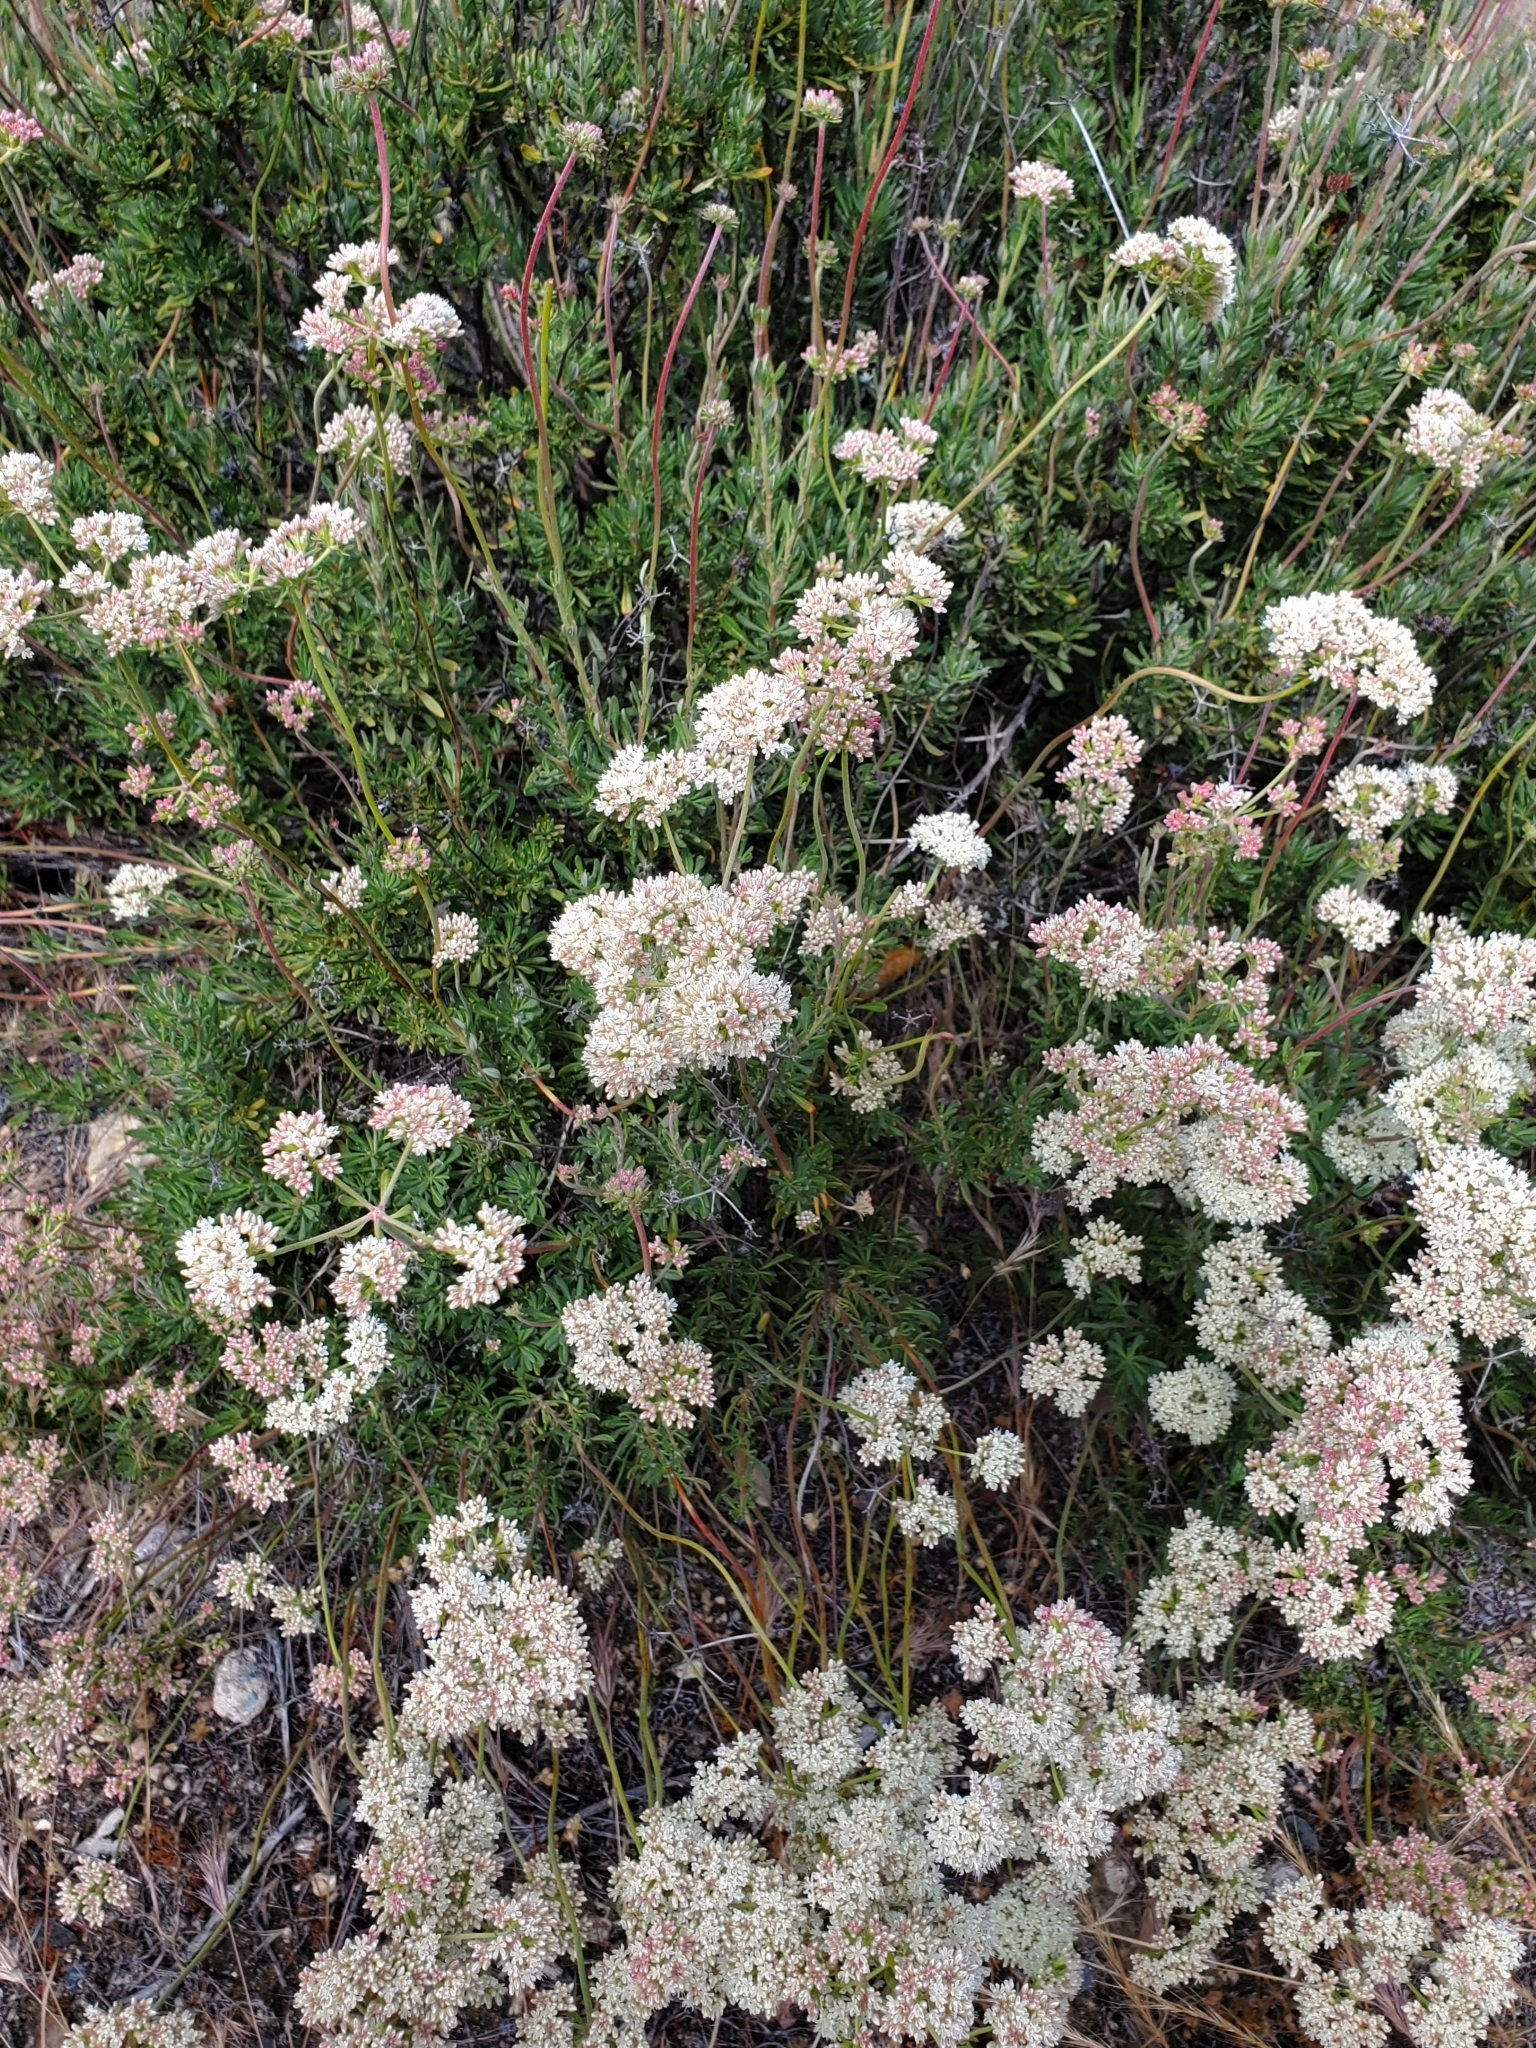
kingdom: Plantae
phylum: Tracheophyta
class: Magnoliopsida
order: Caryophyllales
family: Polygonaceae
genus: Eriogonum
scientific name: Eriogonum fasciculatum
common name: California wild buckwheat
